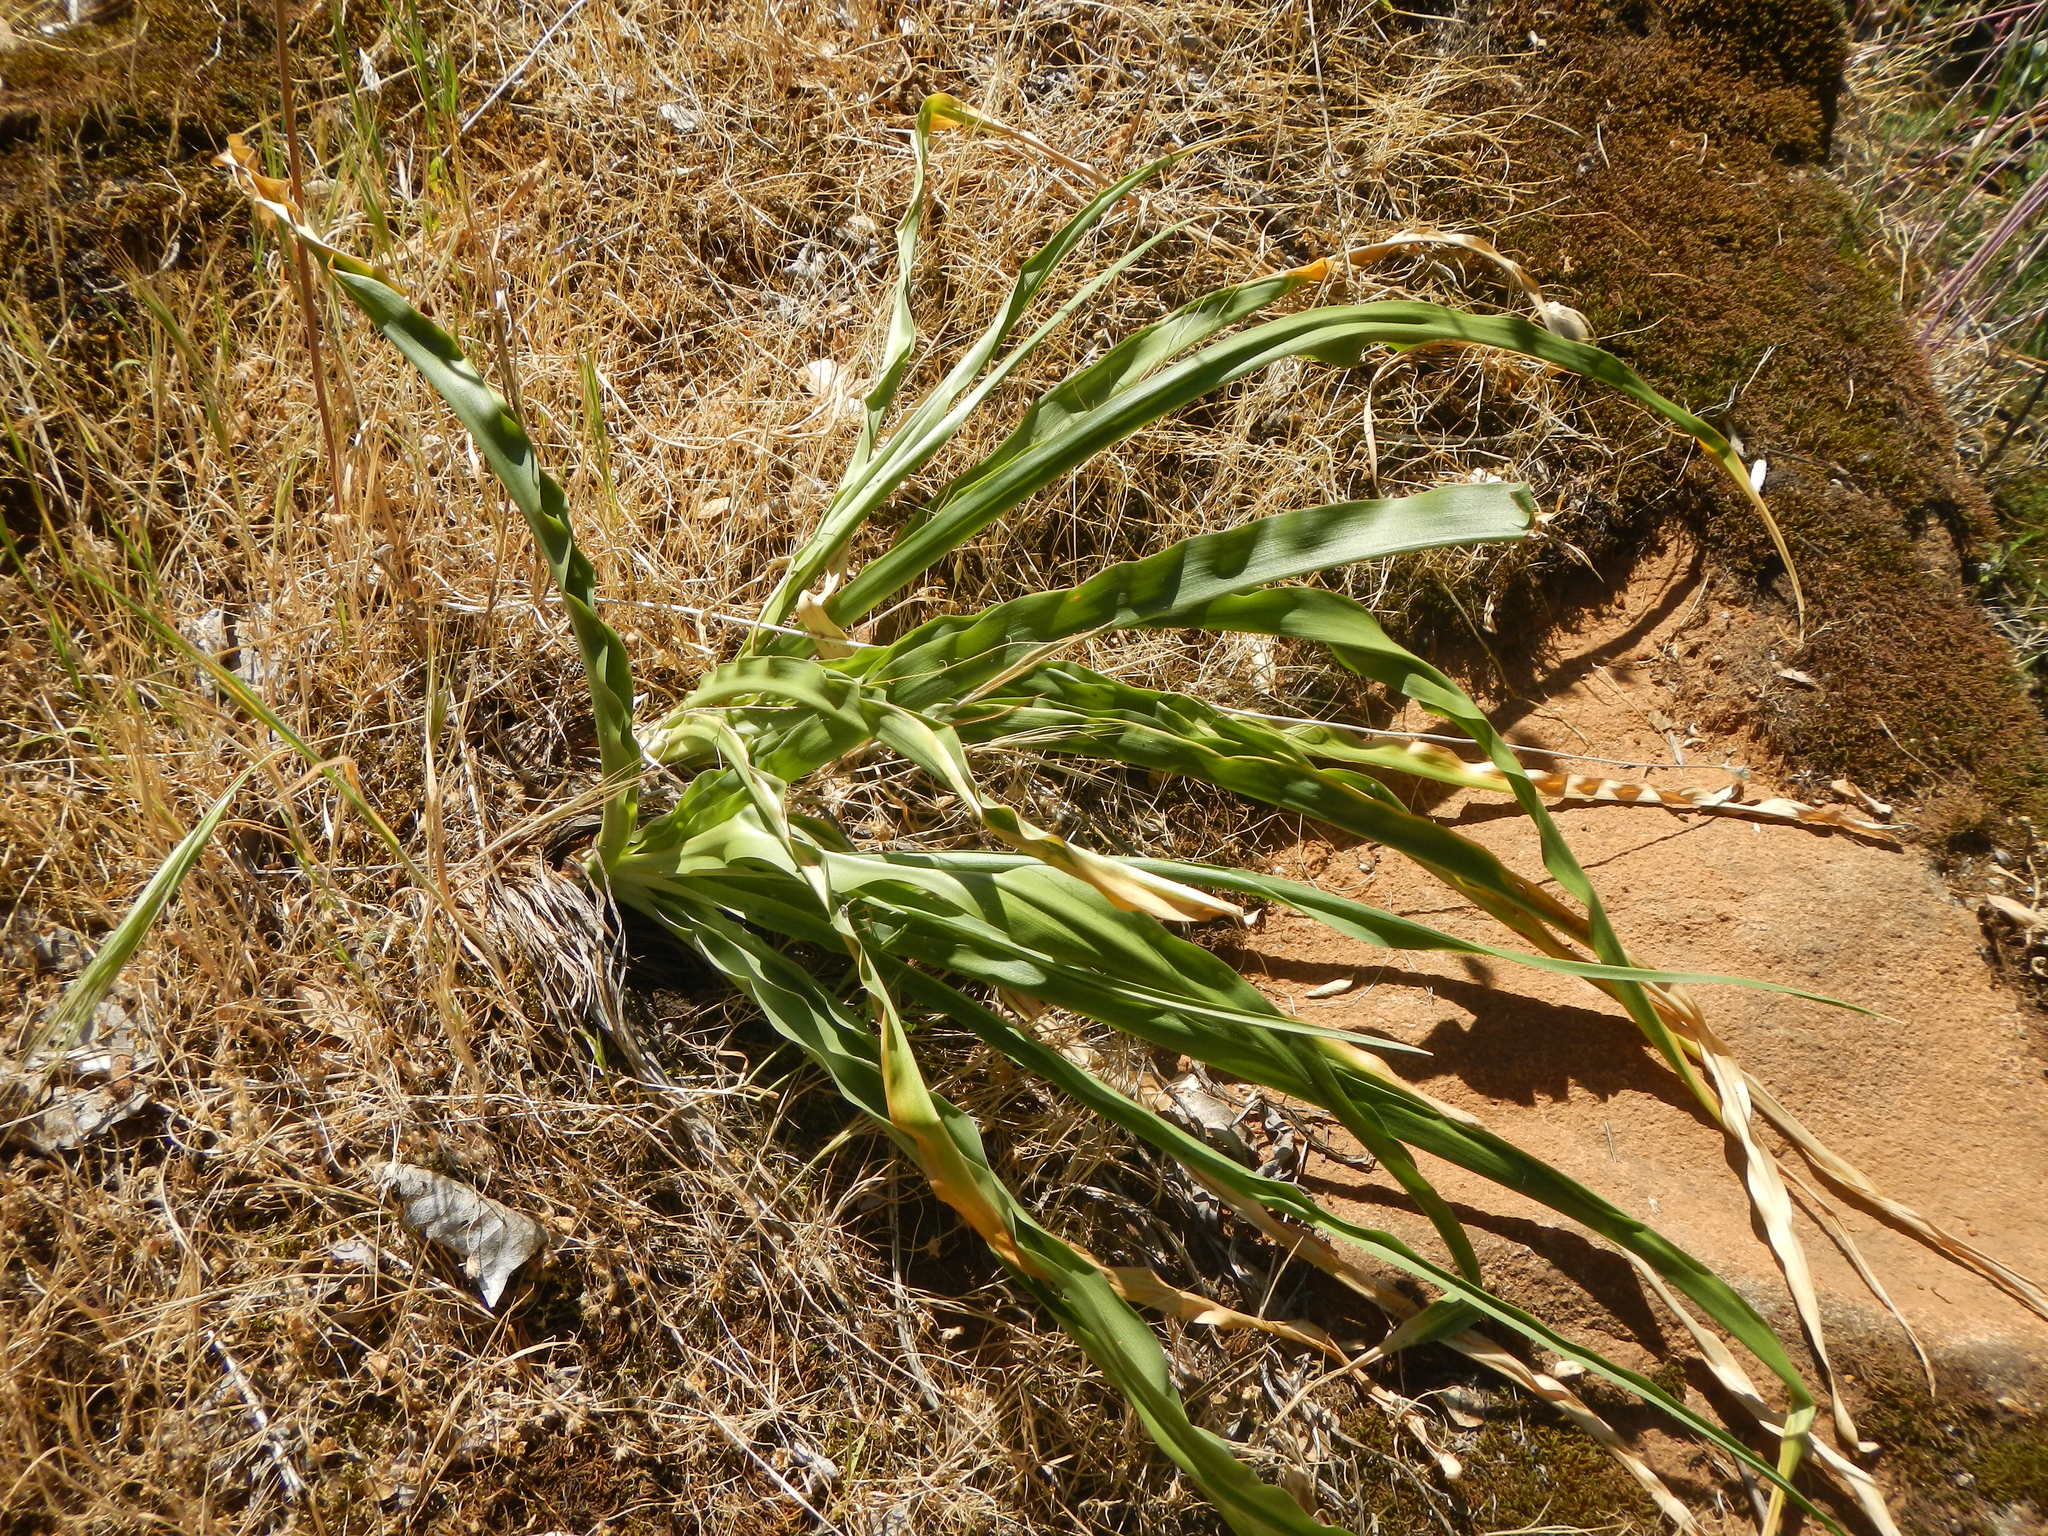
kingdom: Plantae
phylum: Tracheophyta
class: Liliopsida
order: Asparagales
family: Asparagaceae
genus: Chlorogalum
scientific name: Chlorogalum pomeridianum
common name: Amole
